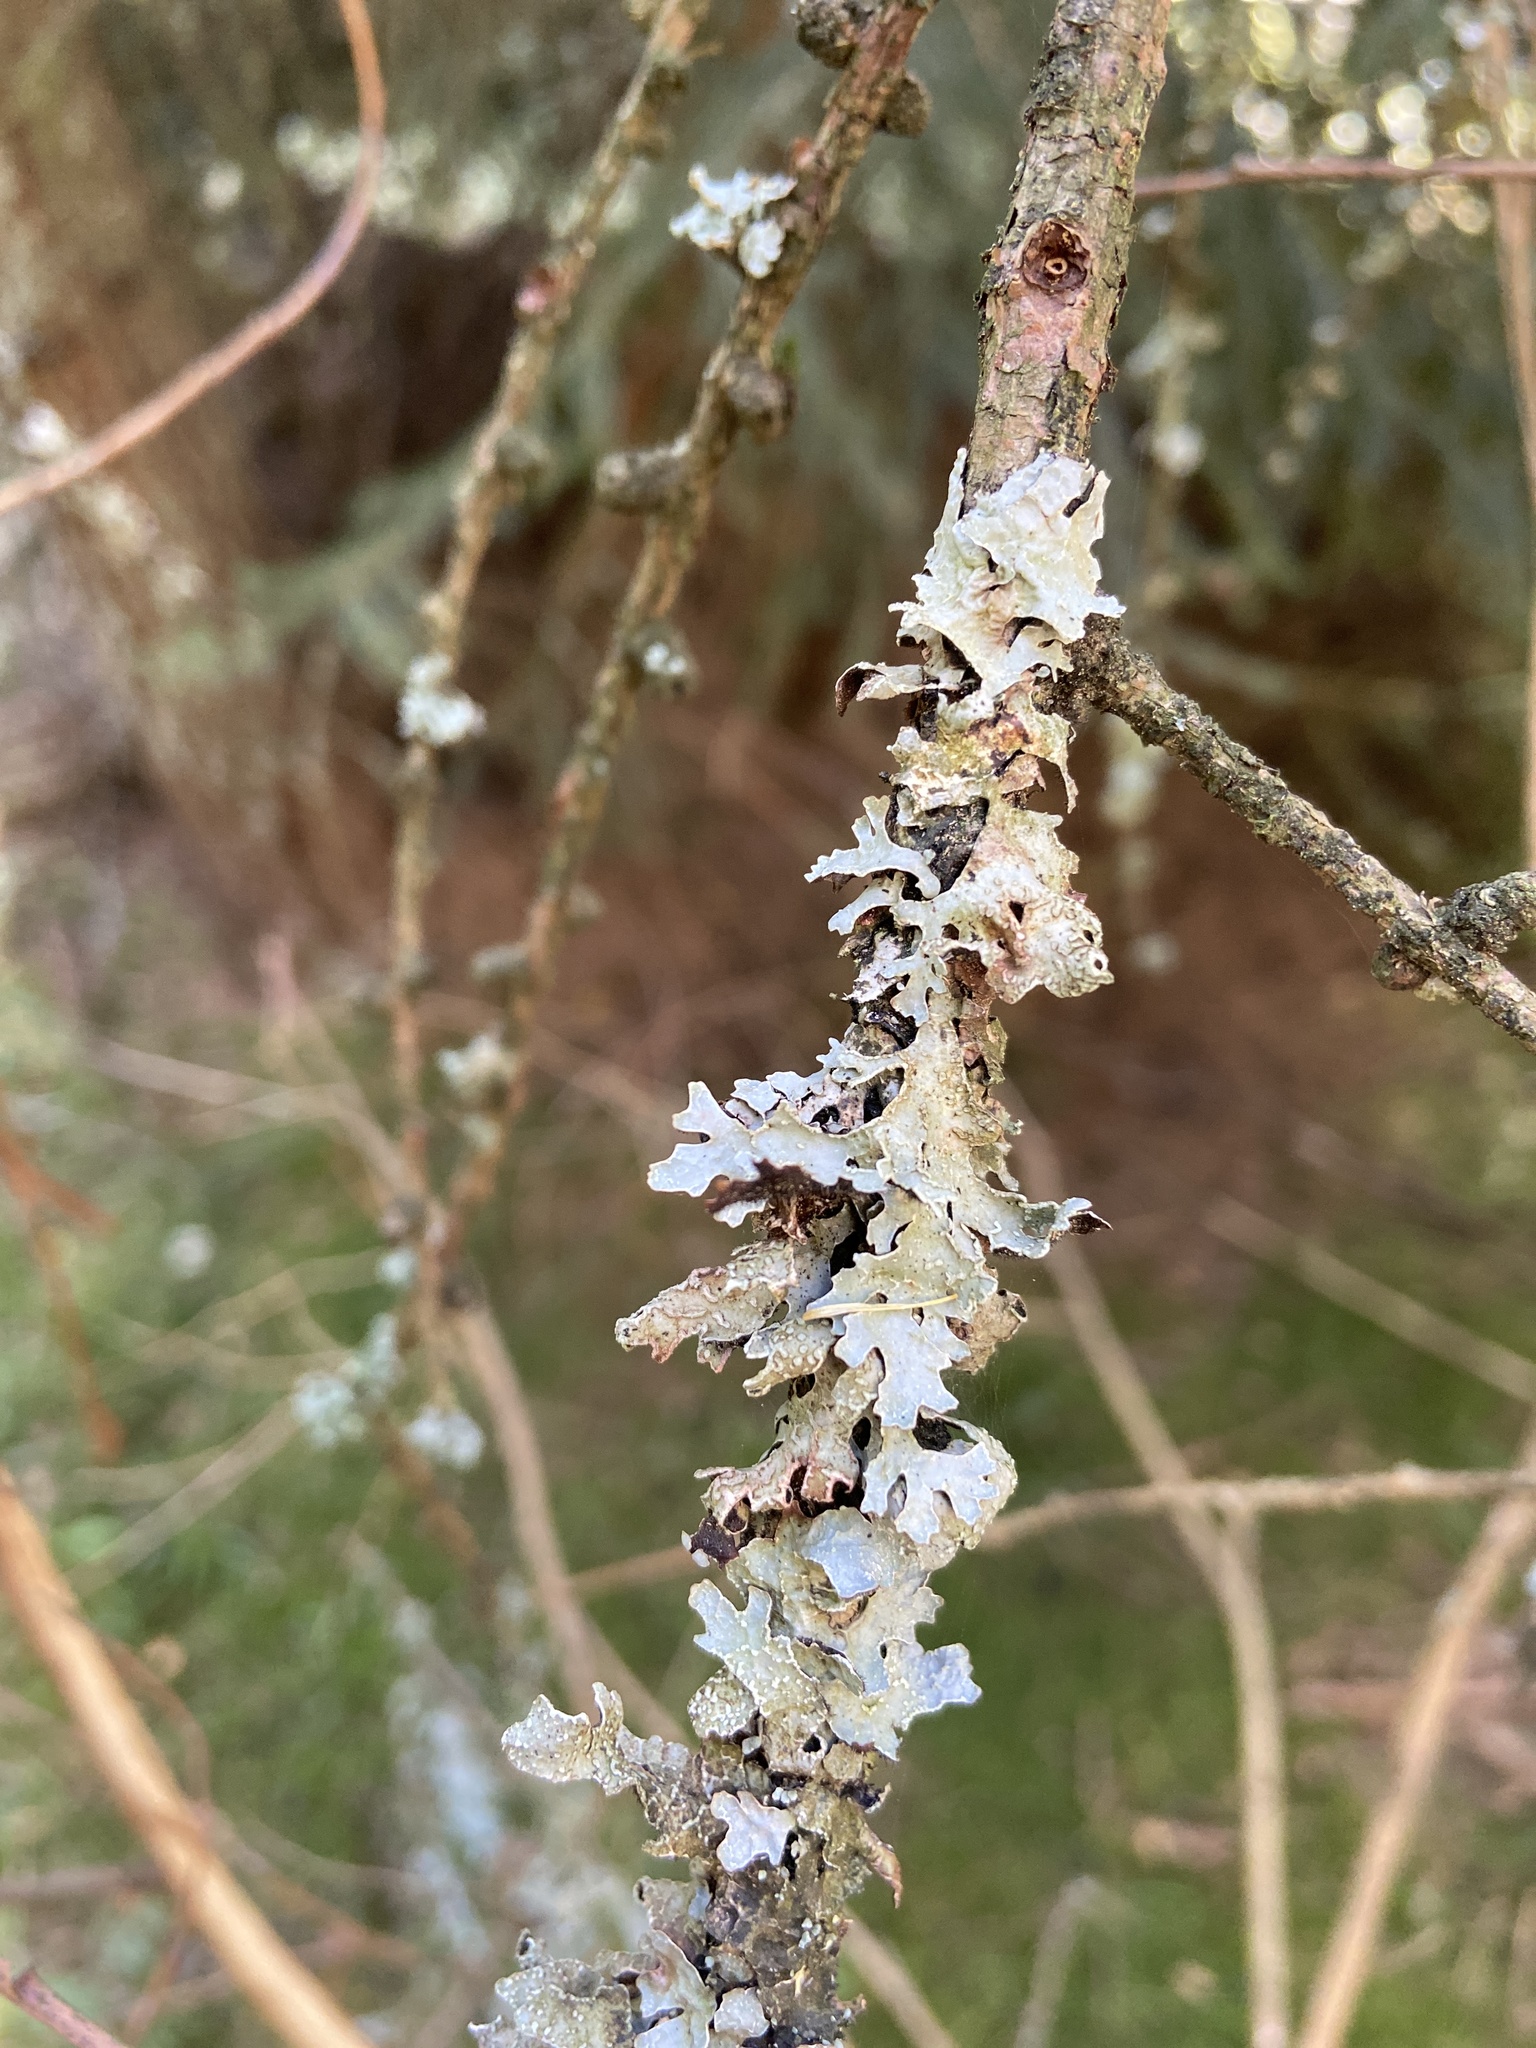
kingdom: Fungi
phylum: Ascomycota
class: Lecanoromycetes
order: Lecanorales
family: Parmeliaceae
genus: Parmelia
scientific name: Parmelia sulcata
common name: Netted shield lichen
